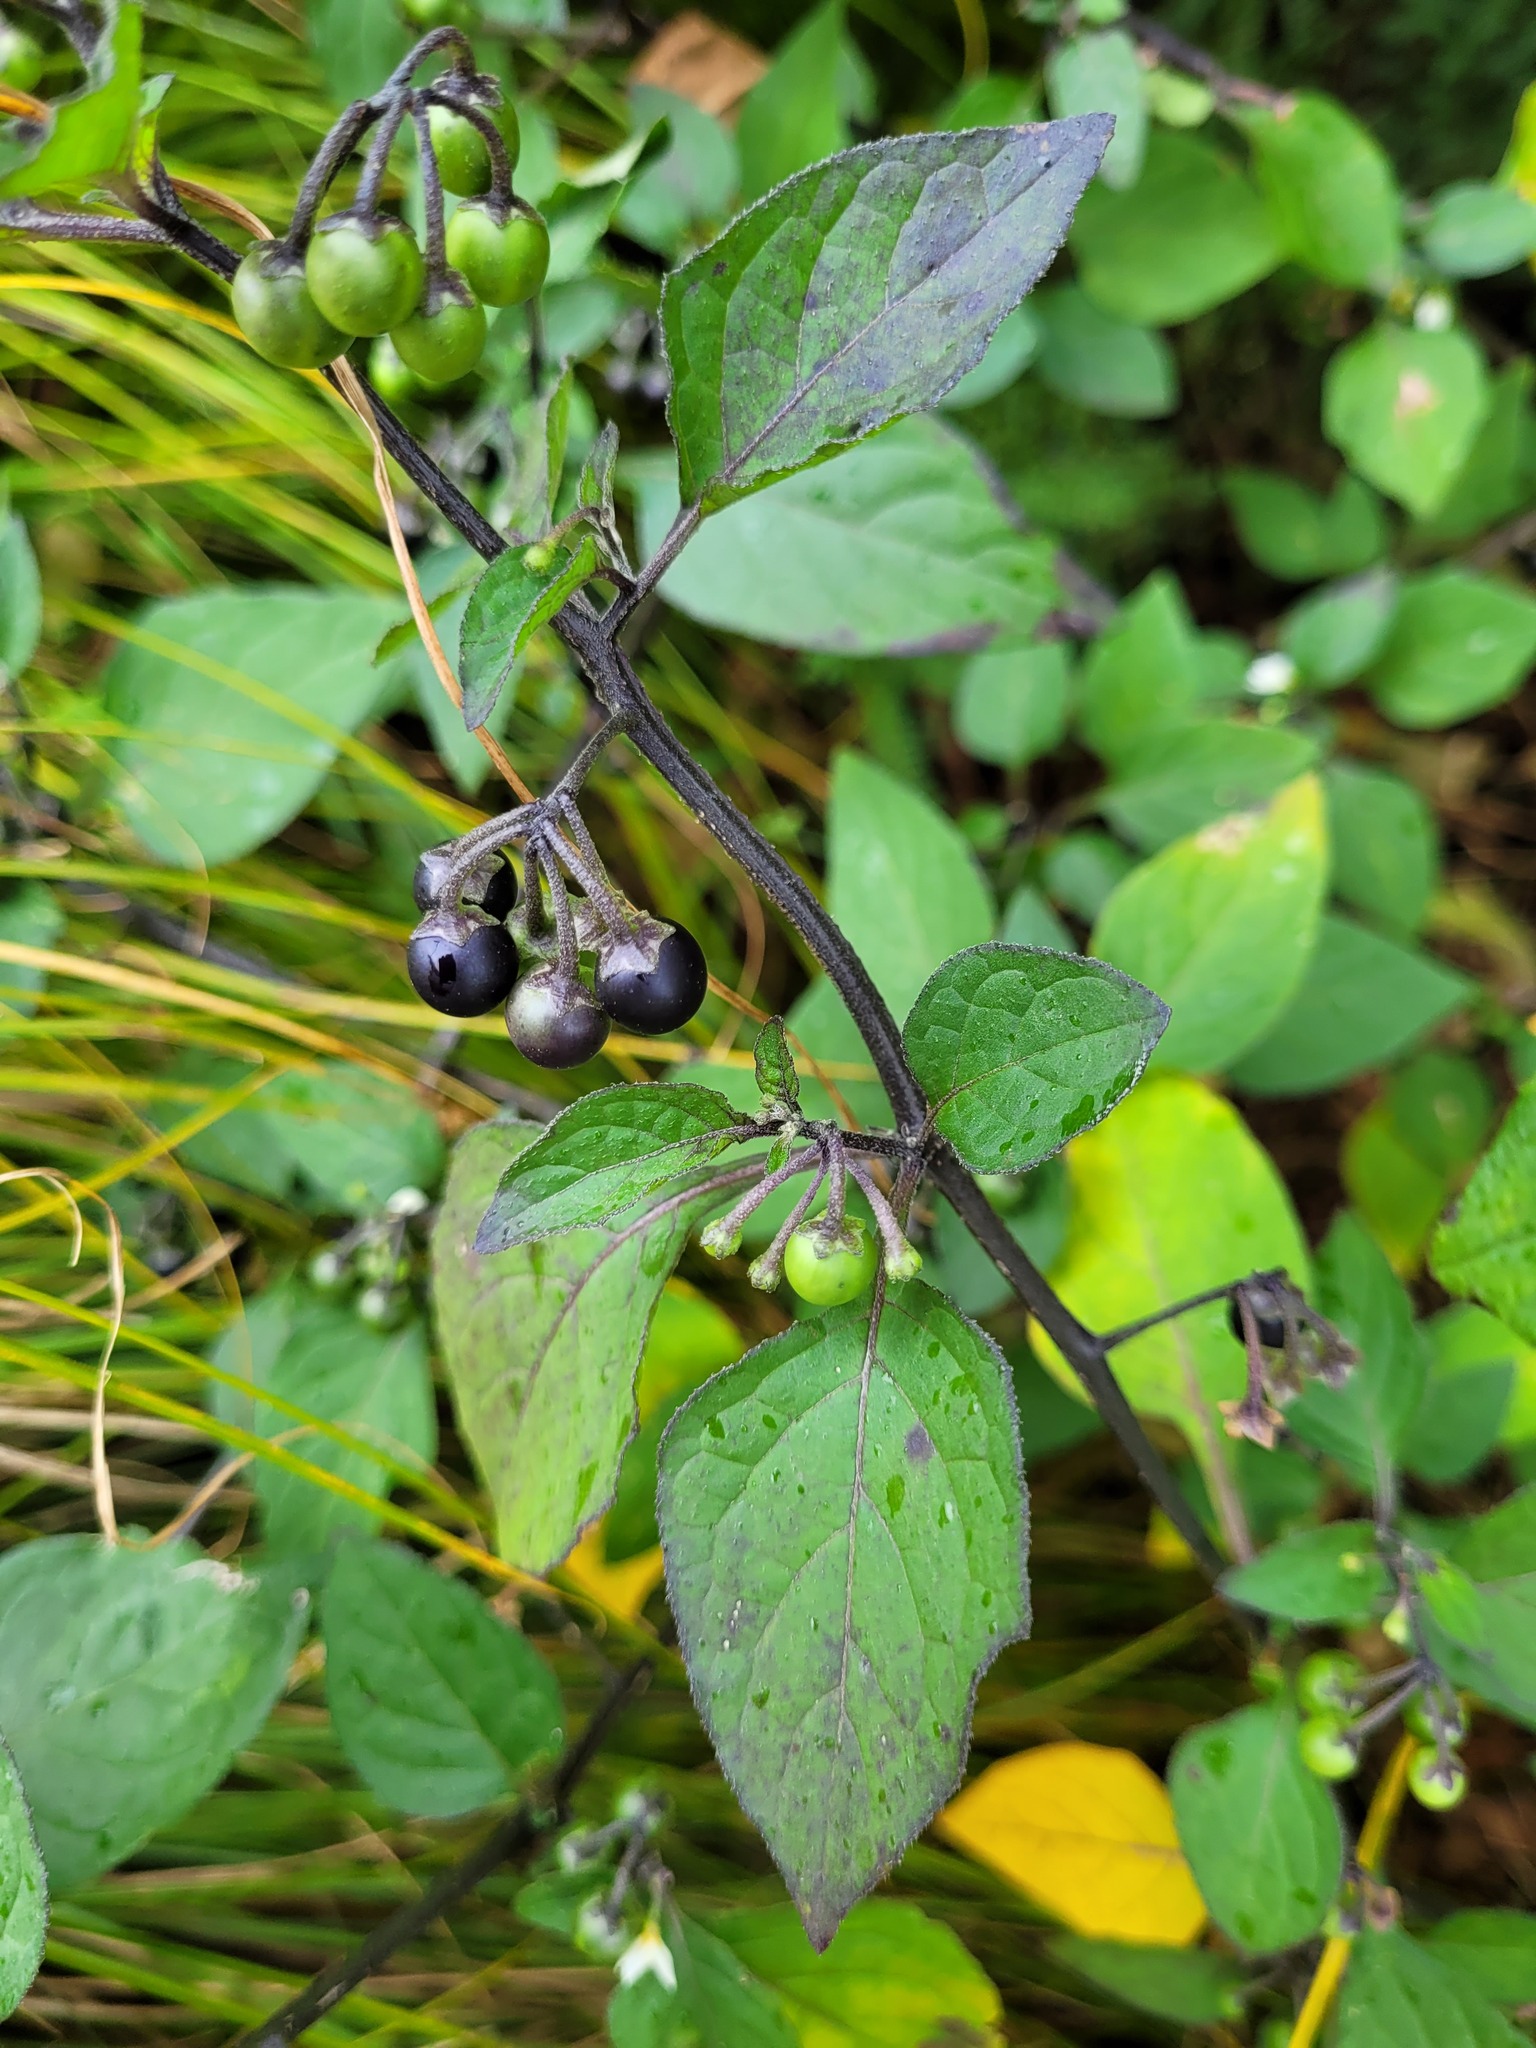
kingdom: Plantae
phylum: Tracheophyta
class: Magnoliopsida
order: Solanales
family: Solanaceae
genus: Solanum
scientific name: Solanum nigrum
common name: Black nightshade
